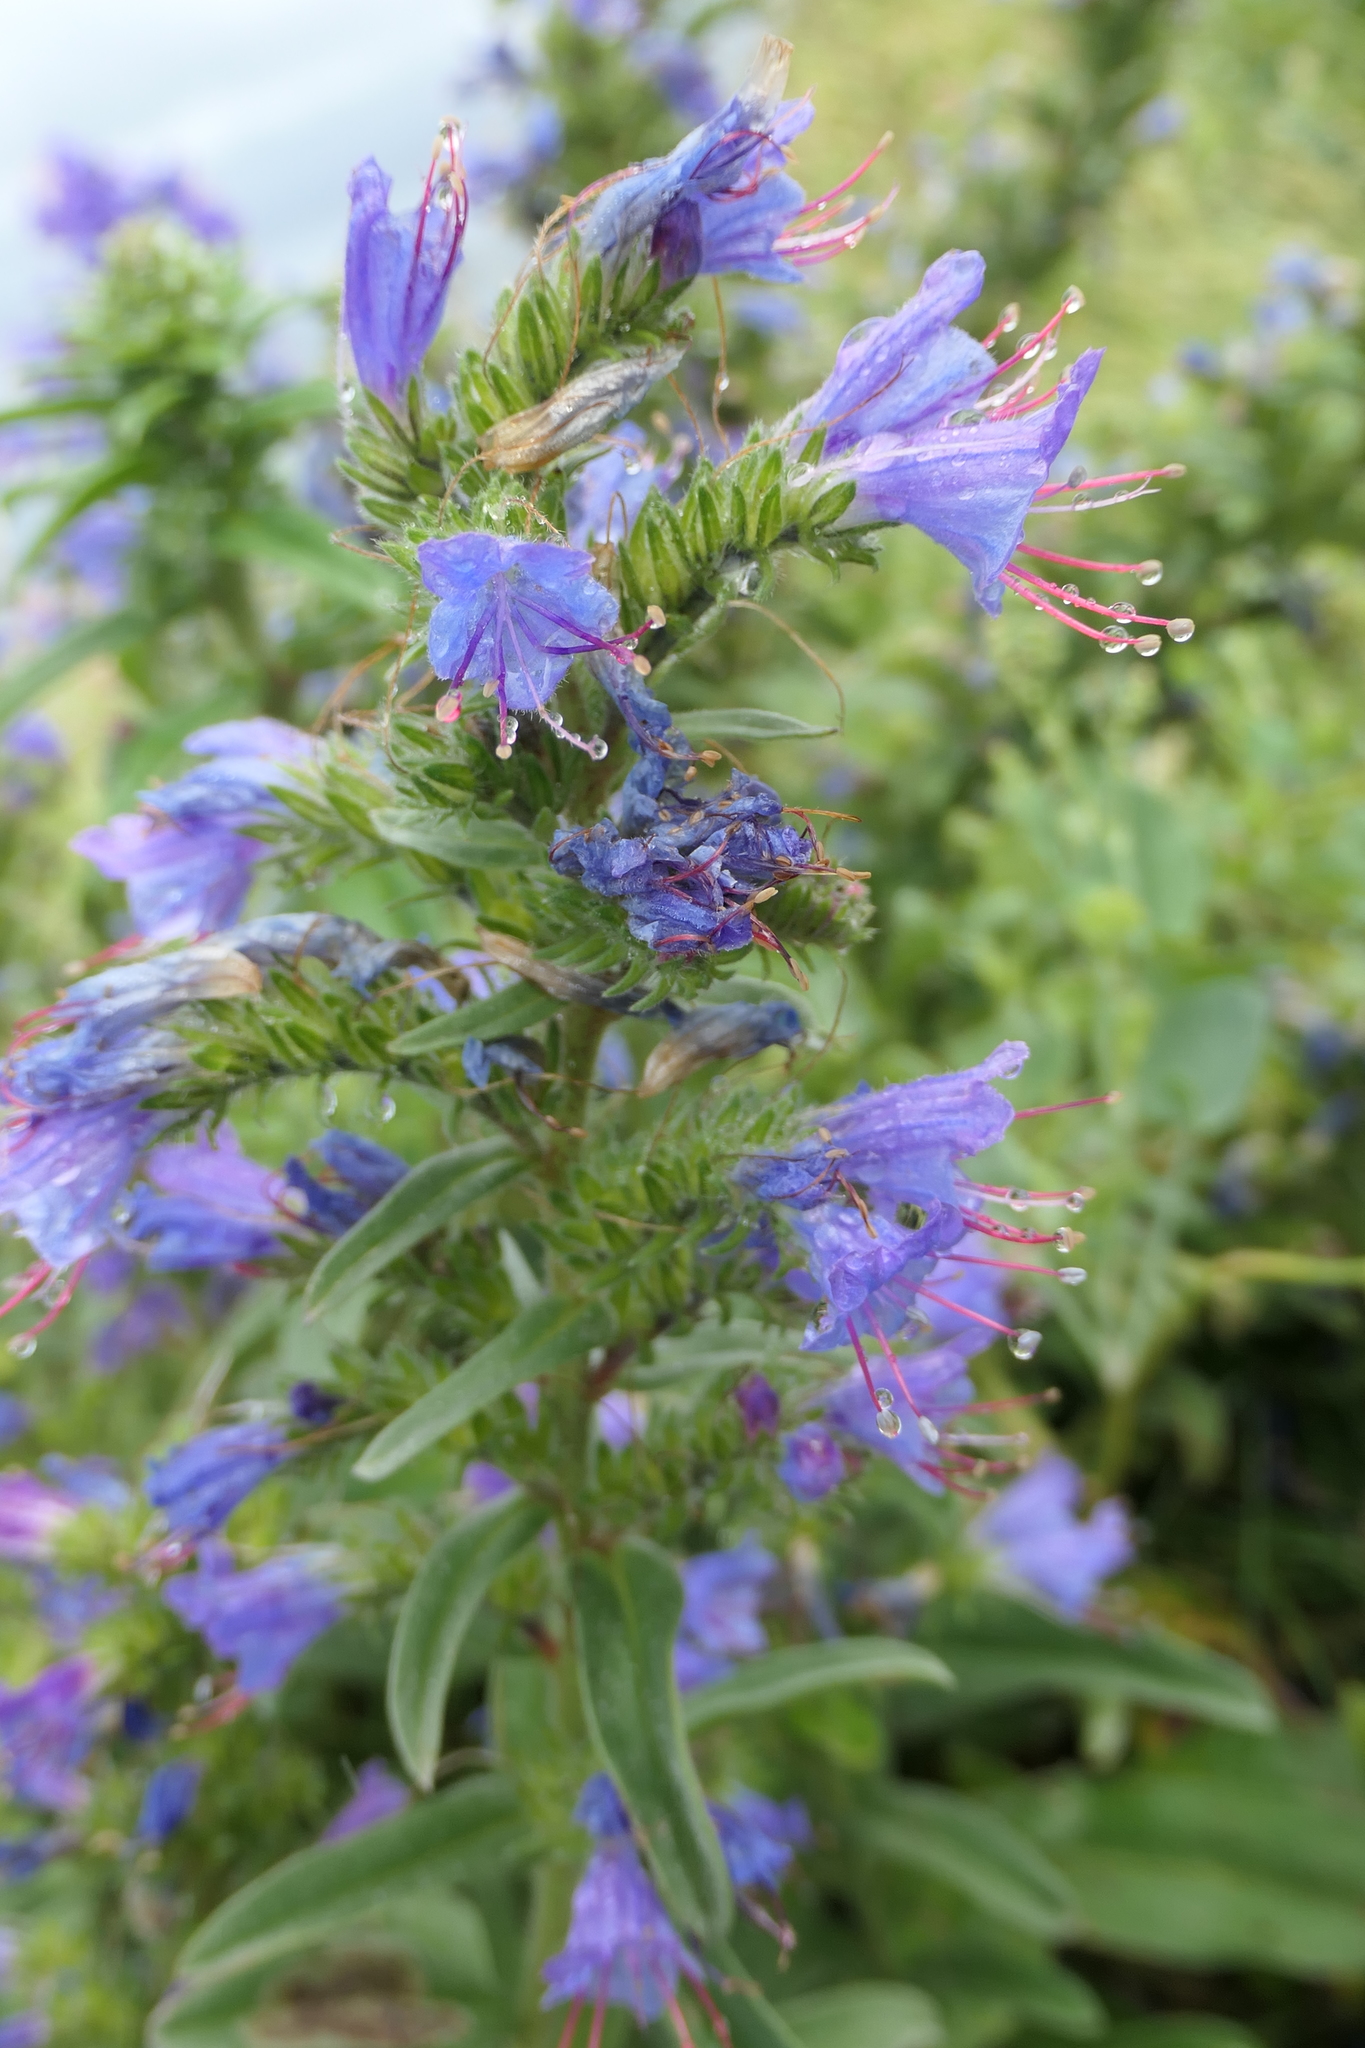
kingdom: Plantae
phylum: Tracheophyta
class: Magnoliopsida
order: Boraginales
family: Boraginaceae
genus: Echium
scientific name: Echium vulgare
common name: Common viper's bugloss
